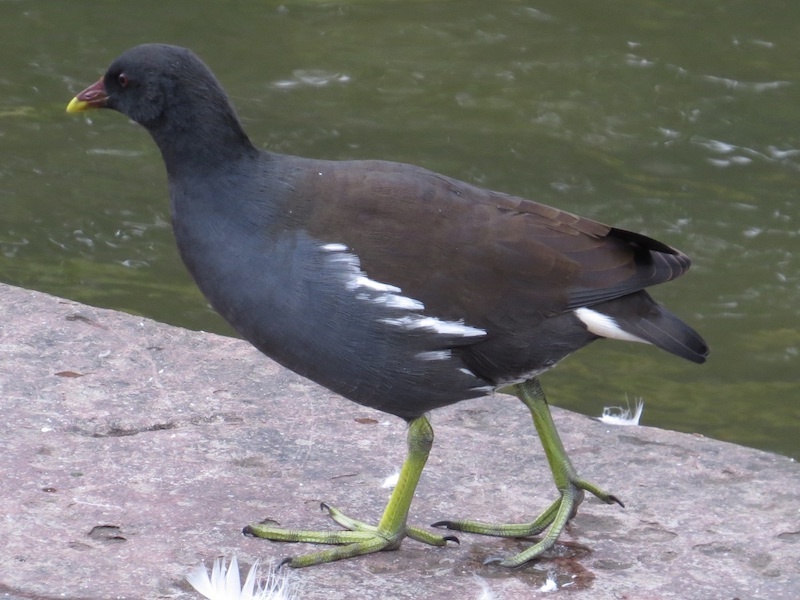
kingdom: Animalia
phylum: Chordata
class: Aves
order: Gruiformes
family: Rallidae
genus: Gallinula
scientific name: Gallinula chloropus
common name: Common moorhen
